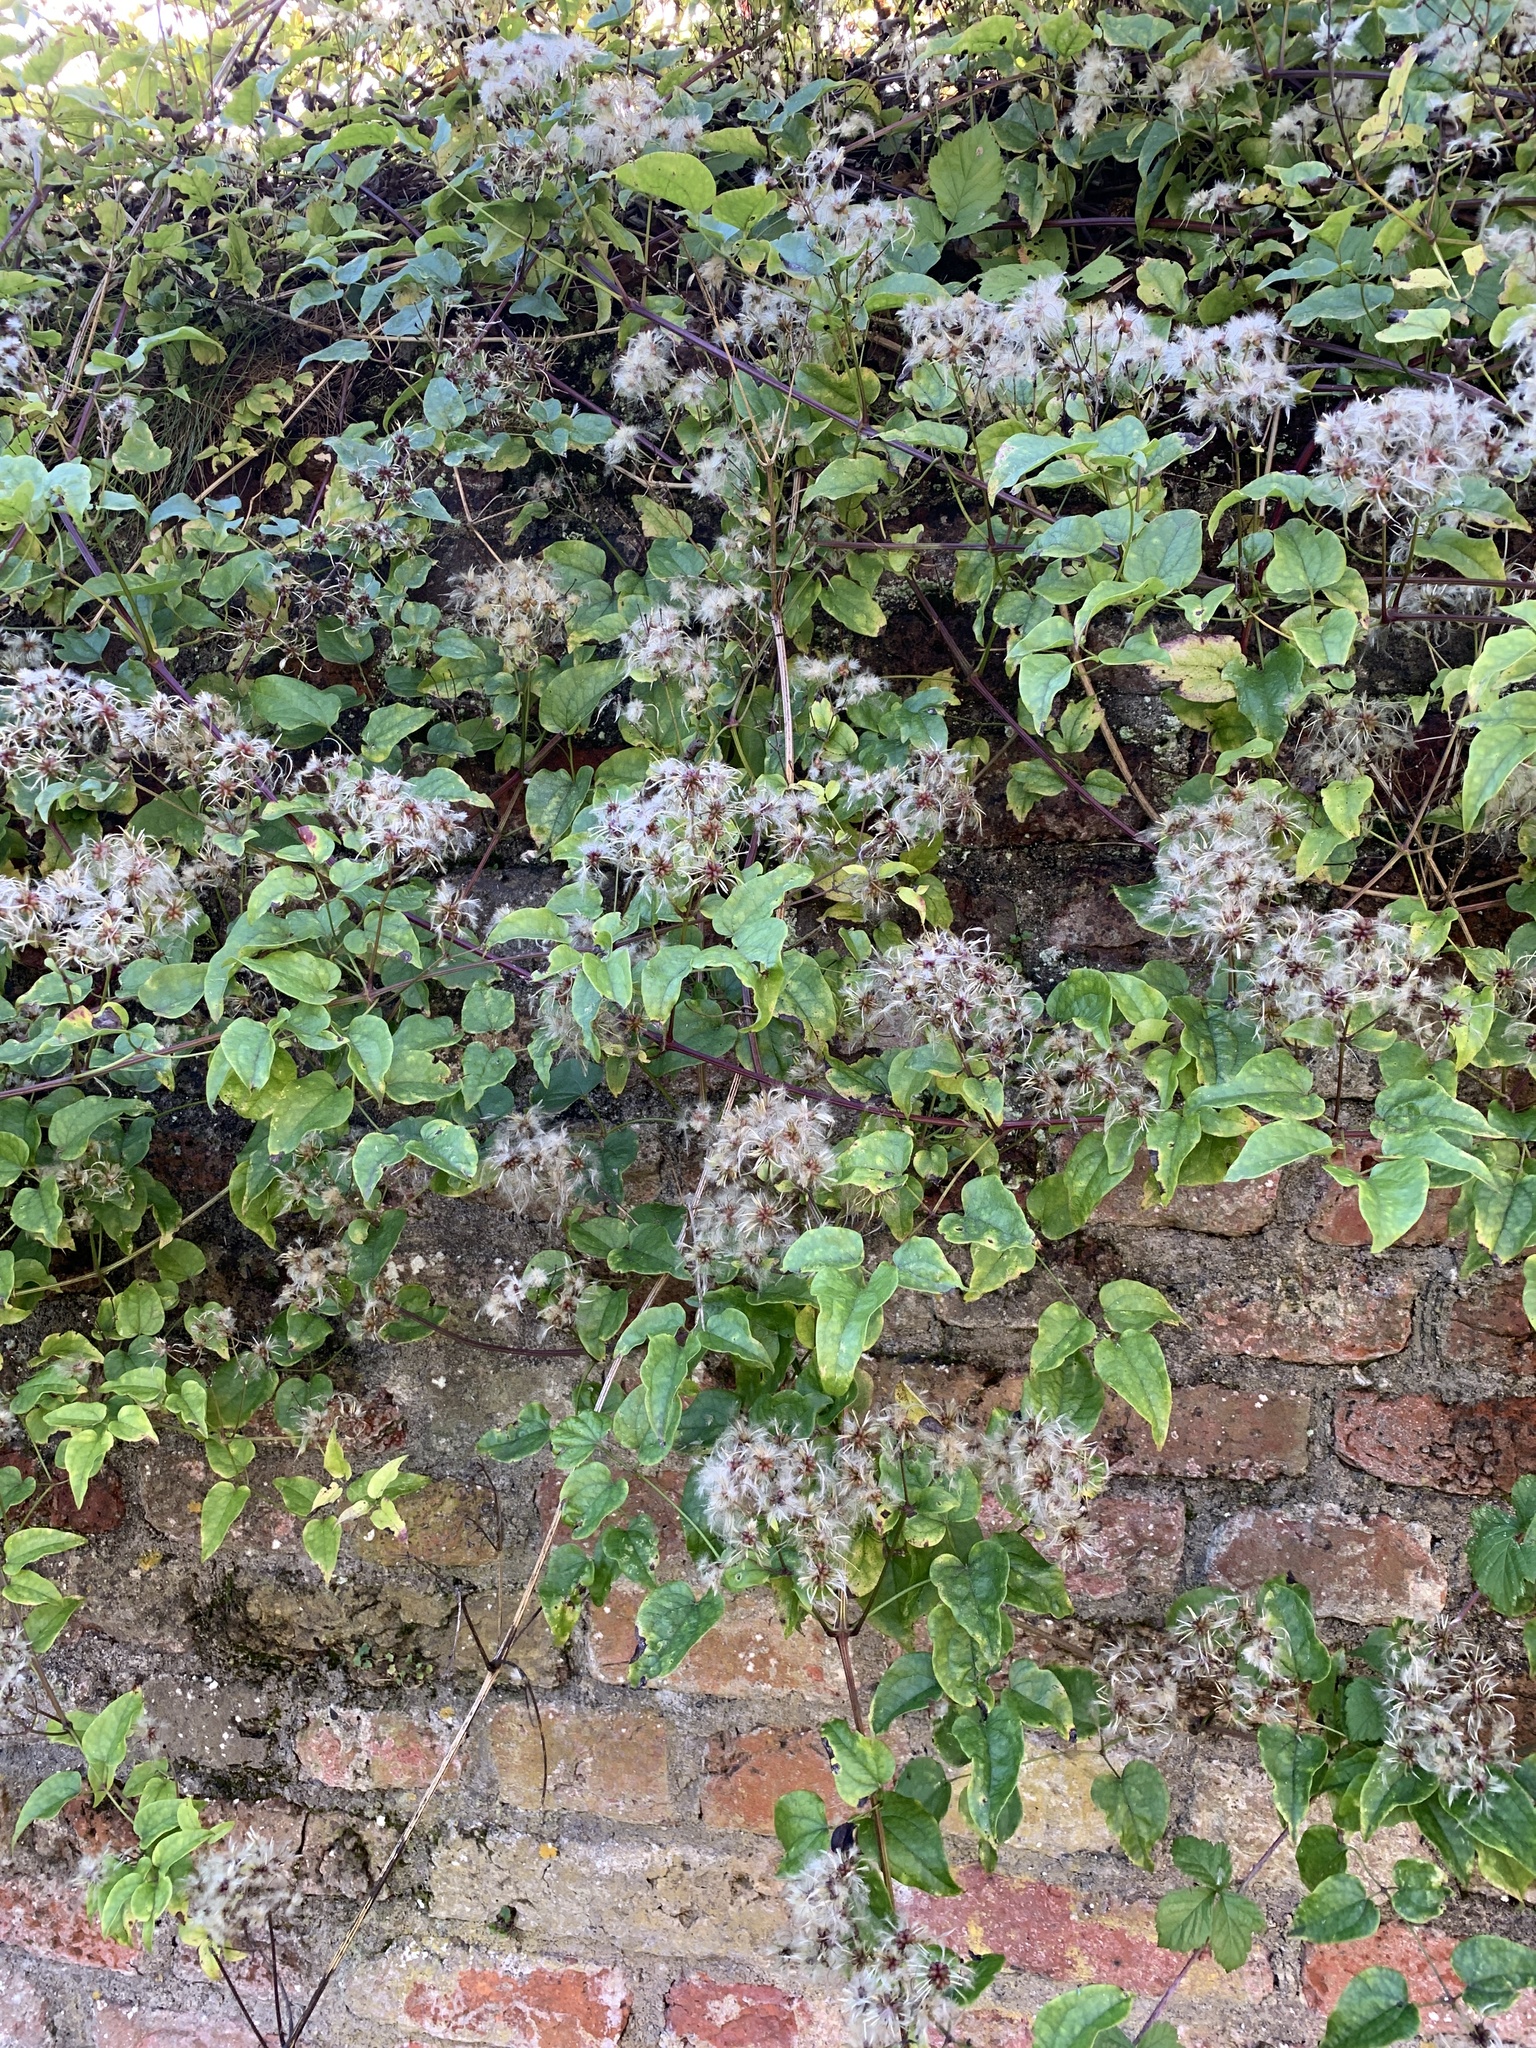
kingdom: Plantae
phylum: Tracheophyta
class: Magnoliopsida
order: Ranunculales
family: Ranunculaceae
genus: Clematis
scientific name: Clematis vitalba
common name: Evergreen clematis
